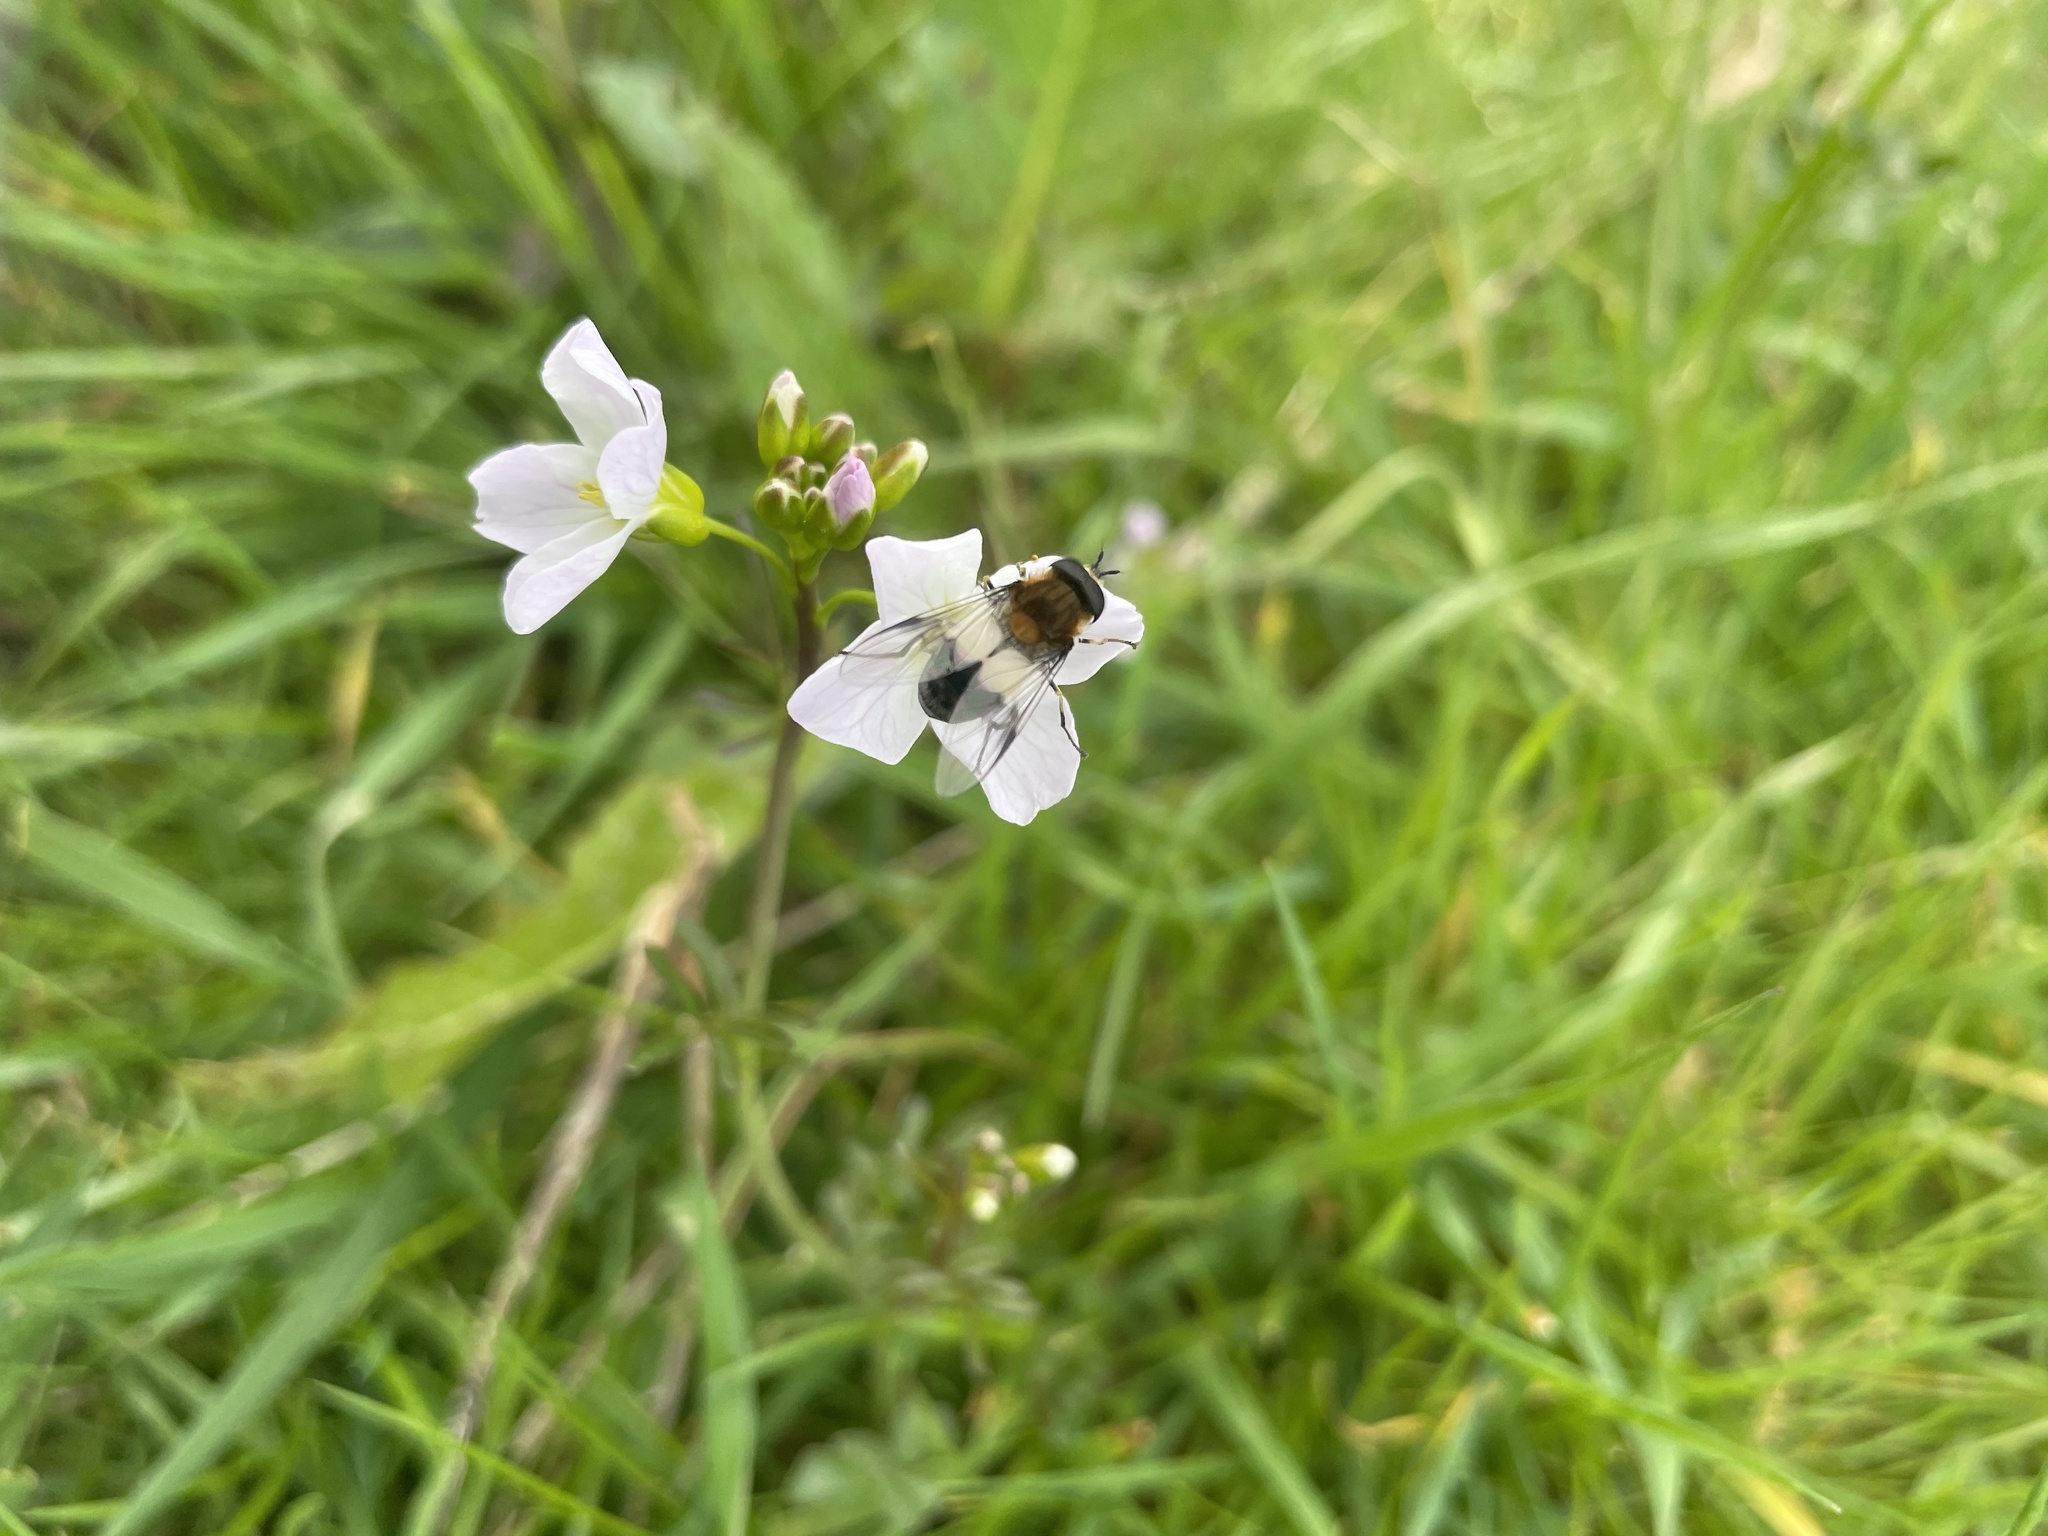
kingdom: Animalia
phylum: Arthropoda
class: Insecta
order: Diptera
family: Syrphidae
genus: Leucozona
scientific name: Leucozona lucorum
